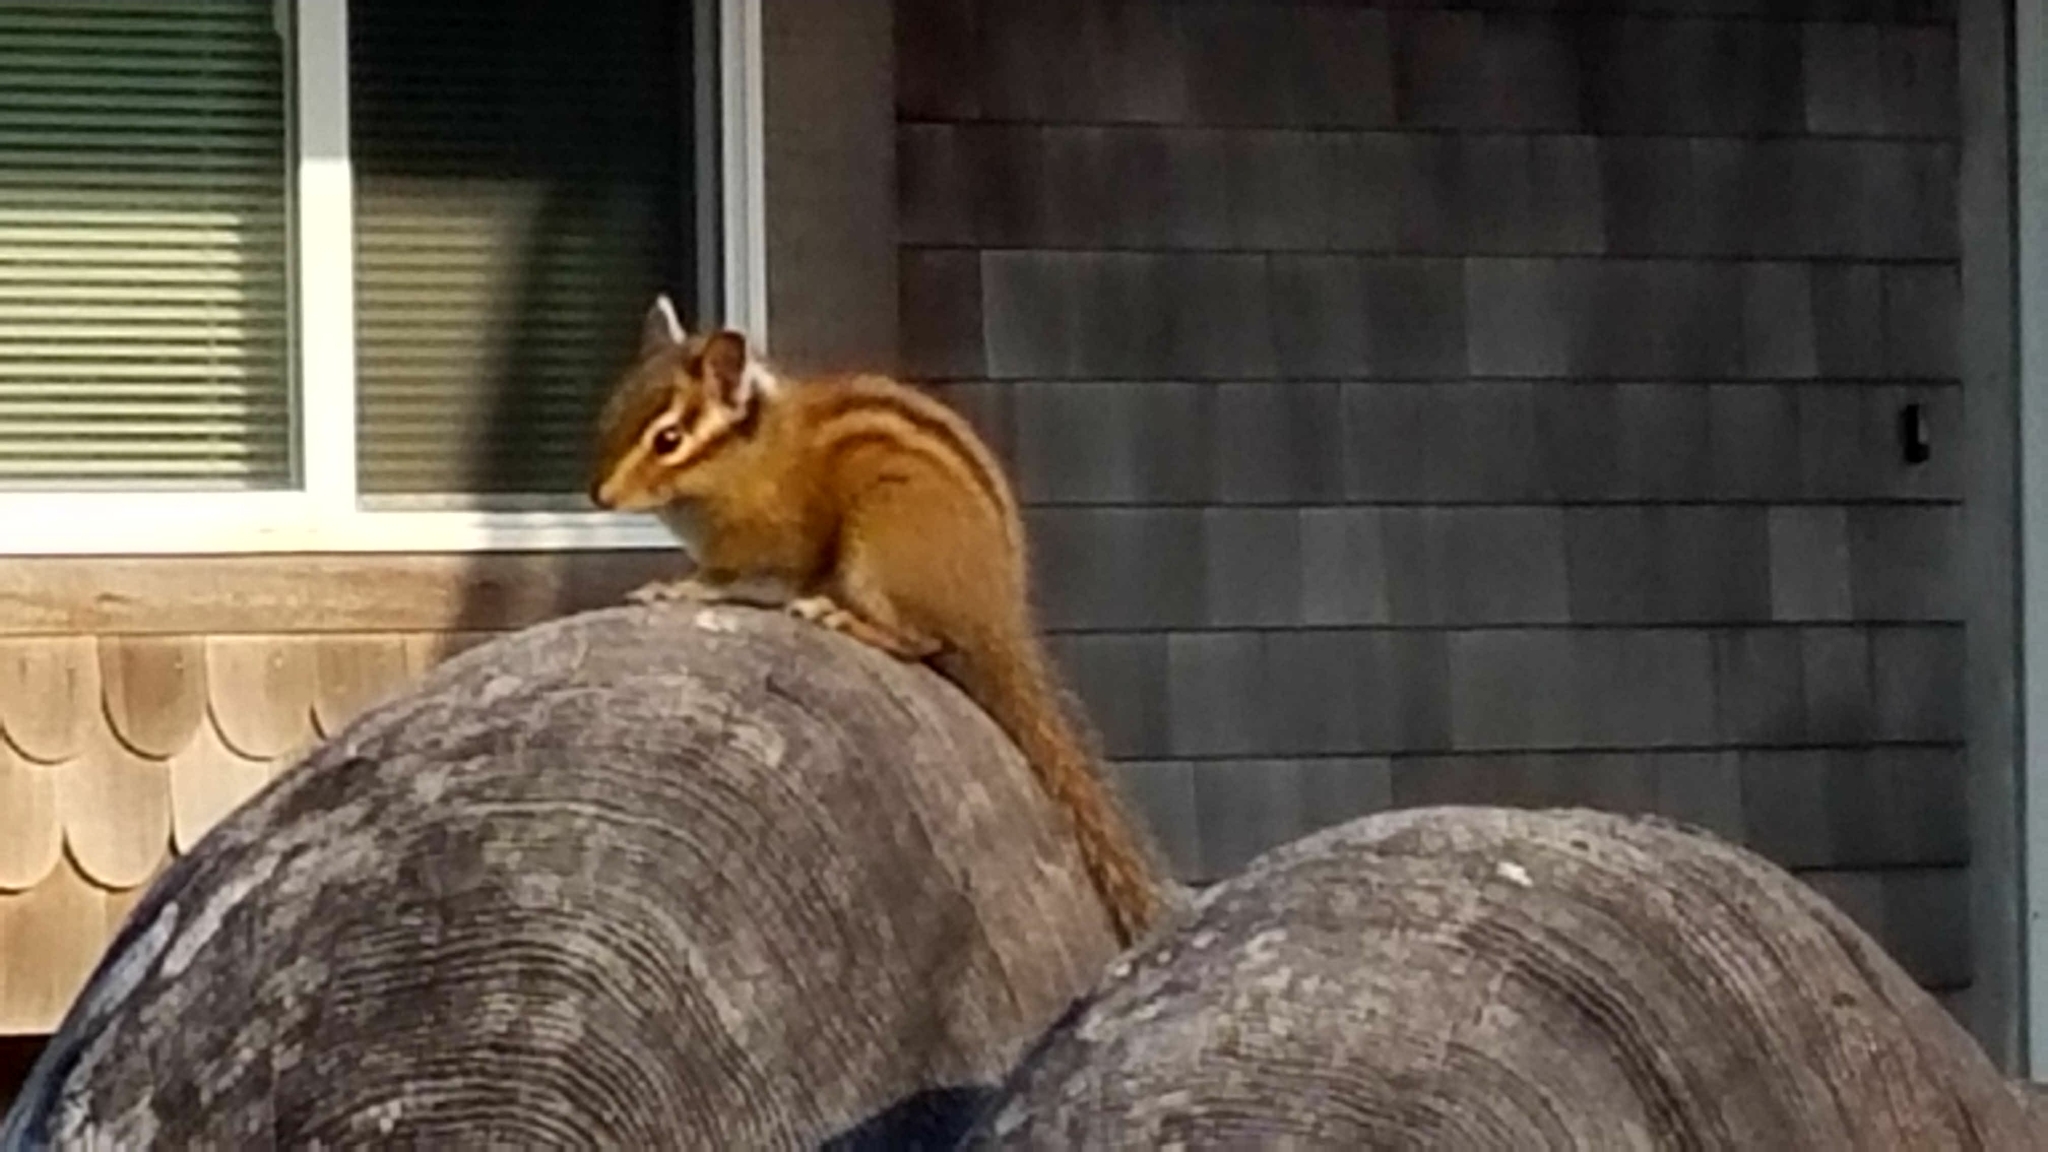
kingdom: Animalia
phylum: Chordata
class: Mammalia
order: Rodentia
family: Sciuridae
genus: Tamias
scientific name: Tamias townsendii
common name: Townsend's chipmunk
